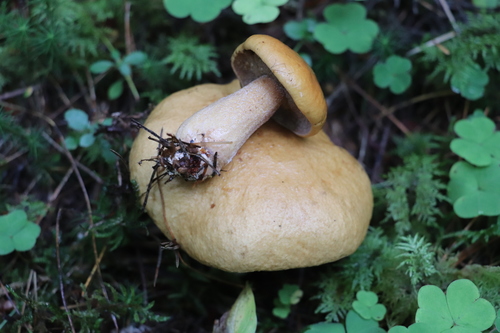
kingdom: Fungi
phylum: Basidiomycota
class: Agaricomycetes
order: Boletales
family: Suillaceae
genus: Suillus
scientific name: Suillus punctatipes
